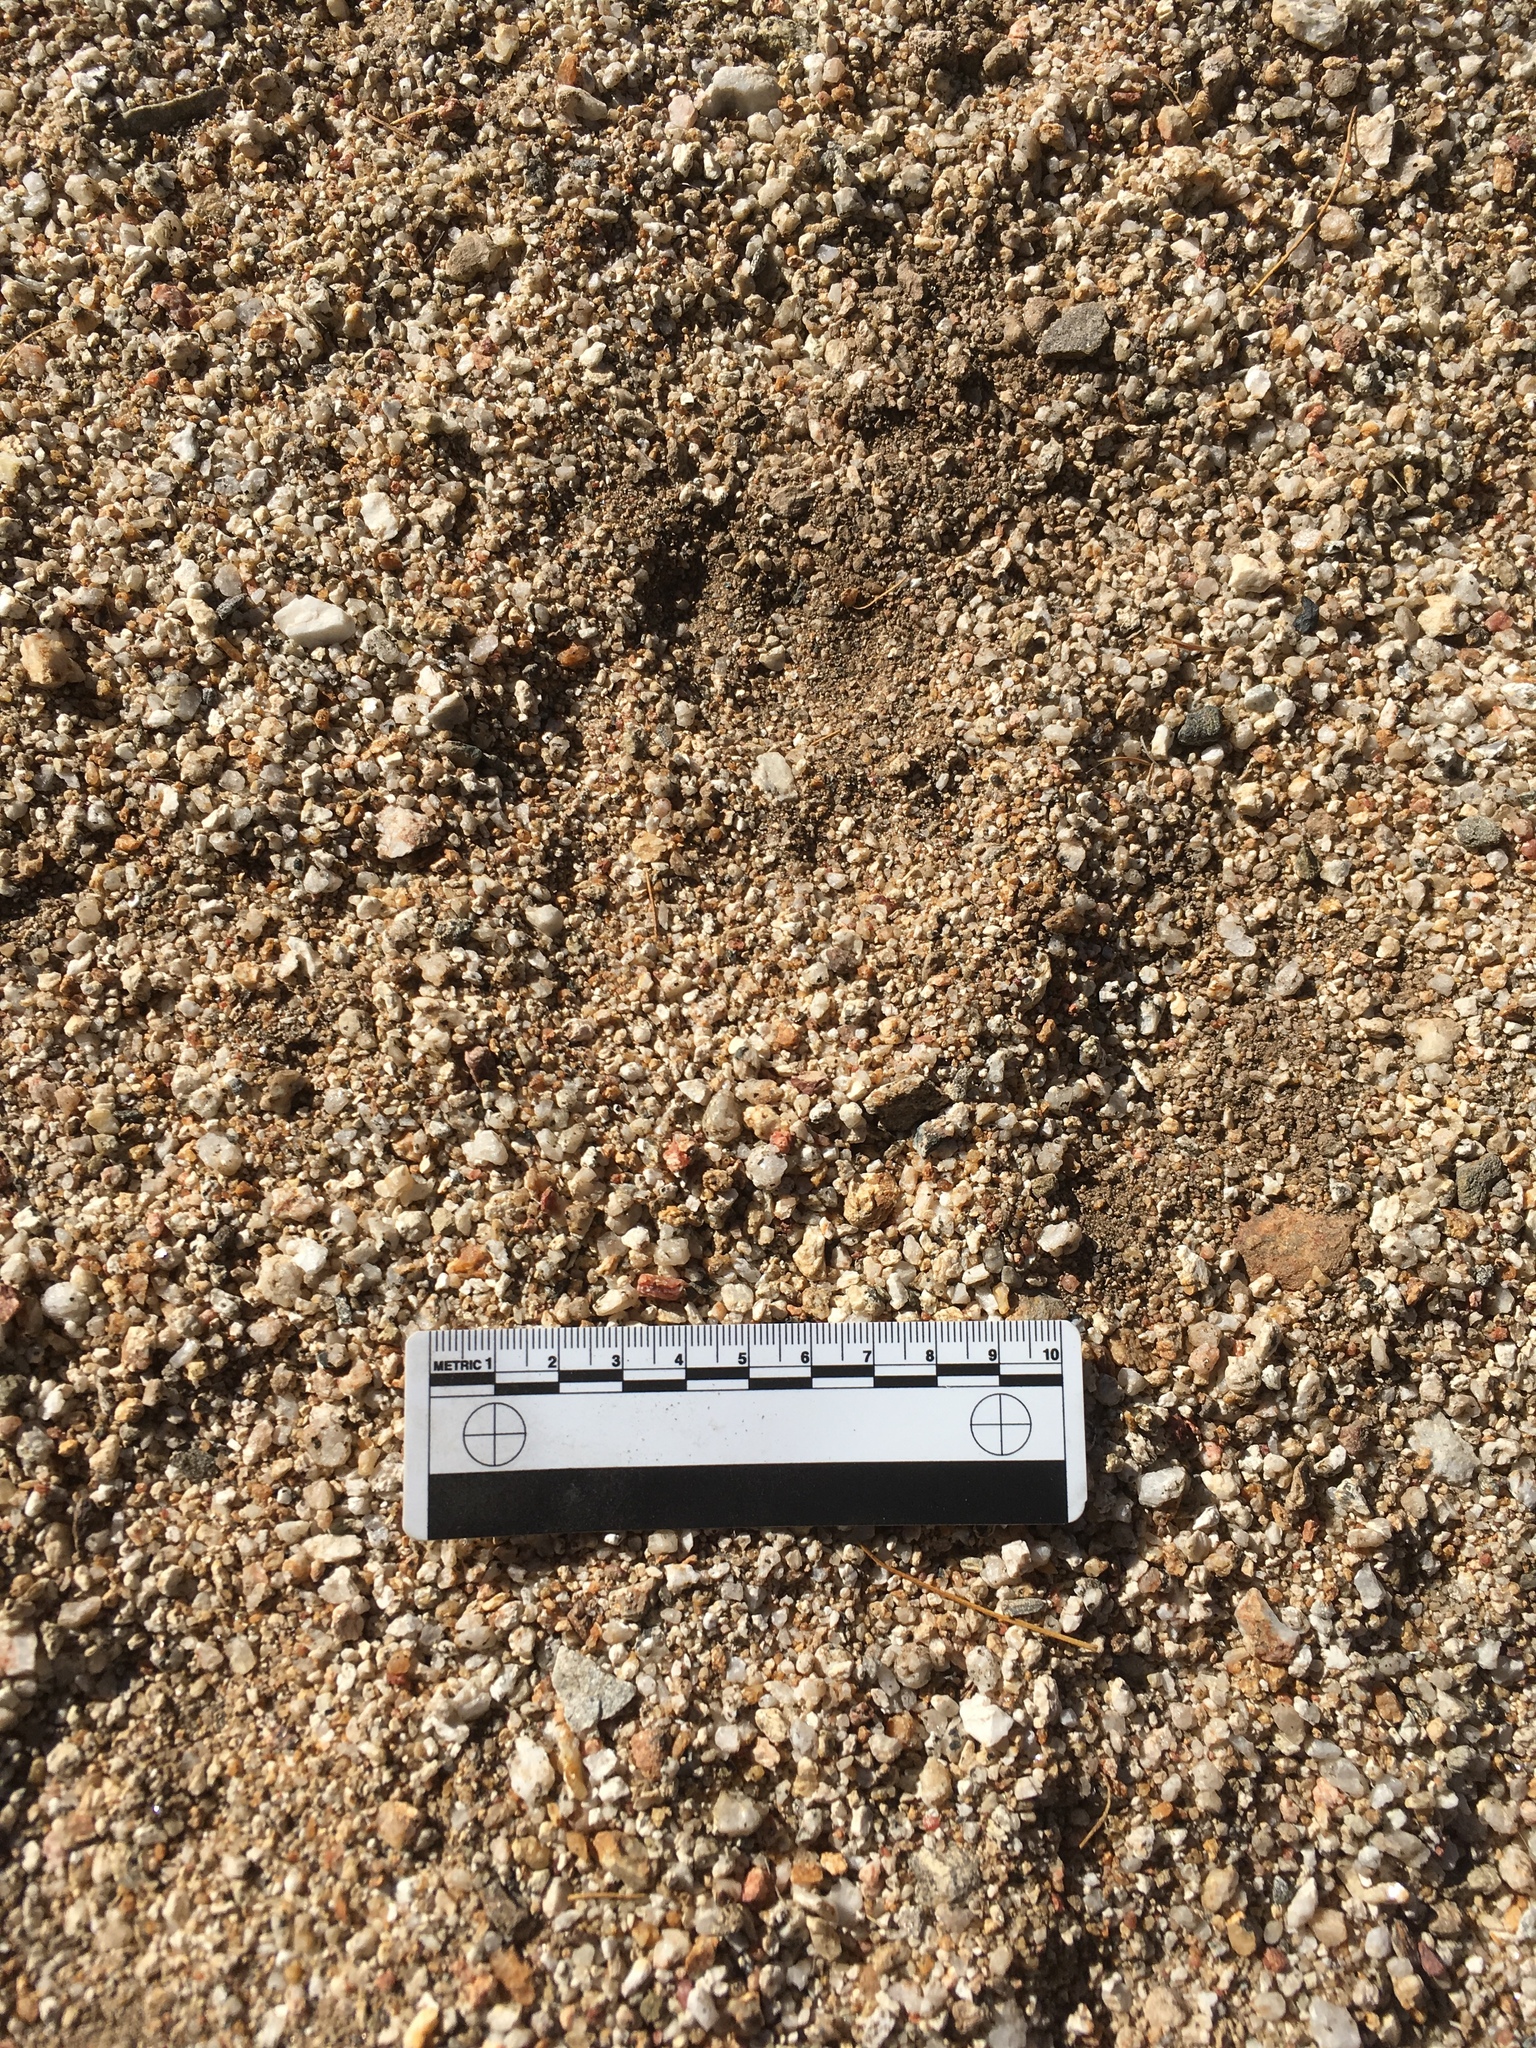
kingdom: Animalia
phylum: Chordata
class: Mammalia
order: Carnivora
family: Felidae
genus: Puma
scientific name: Puma concolor
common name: Puma
